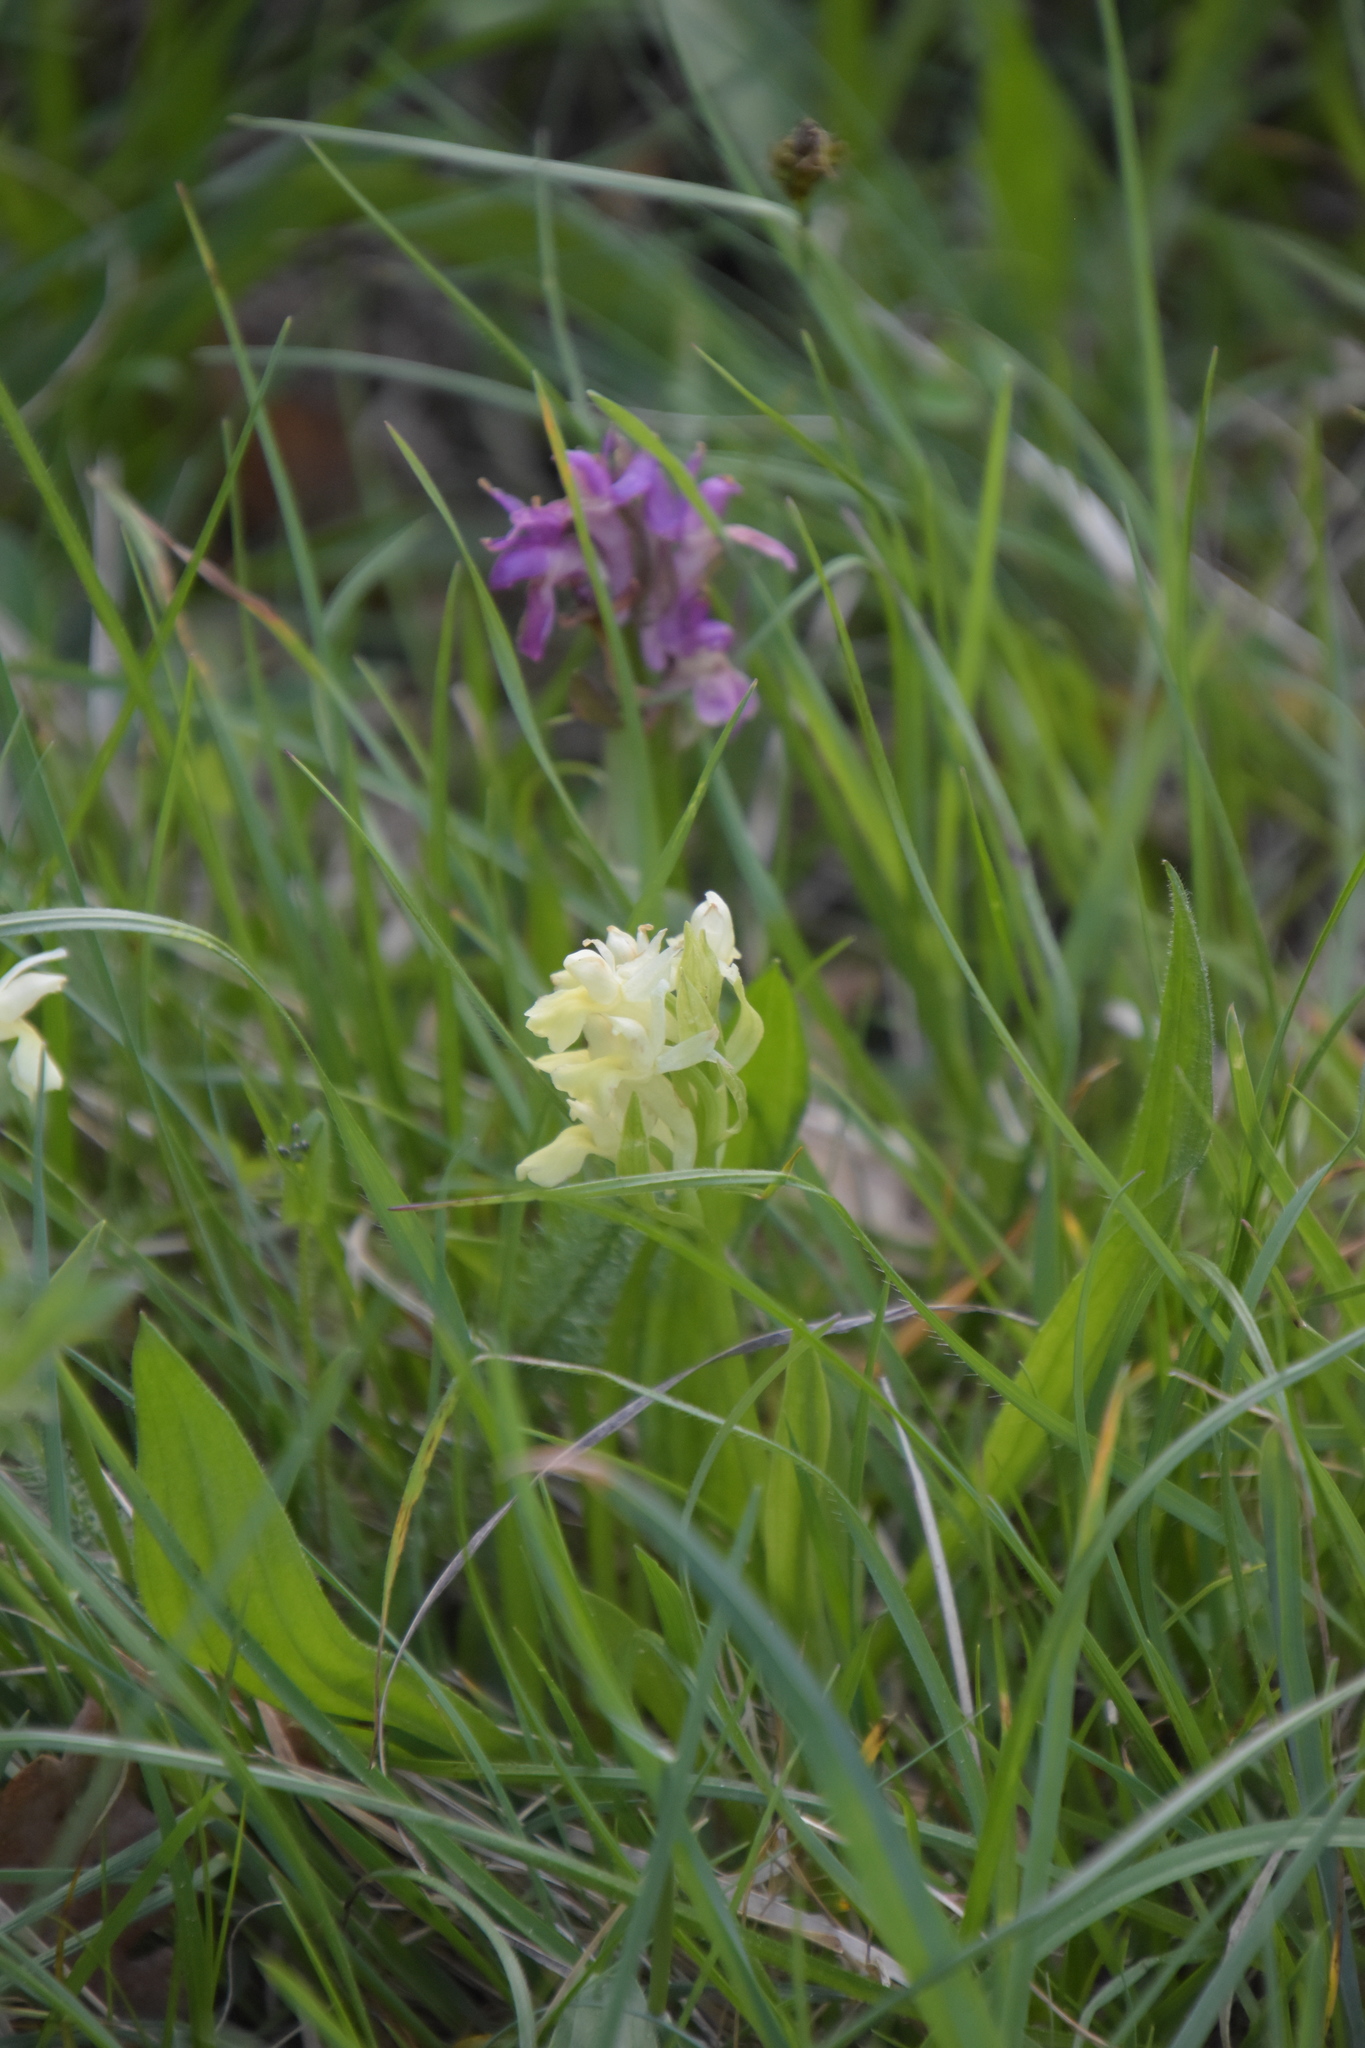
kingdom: Plantae
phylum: Tracheophyta
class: Liliopsida
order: Asparagales
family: Orchidaceae
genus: Dactylorhiza
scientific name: Dactylorhiza sambucina
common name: Elder-flowered orchid
